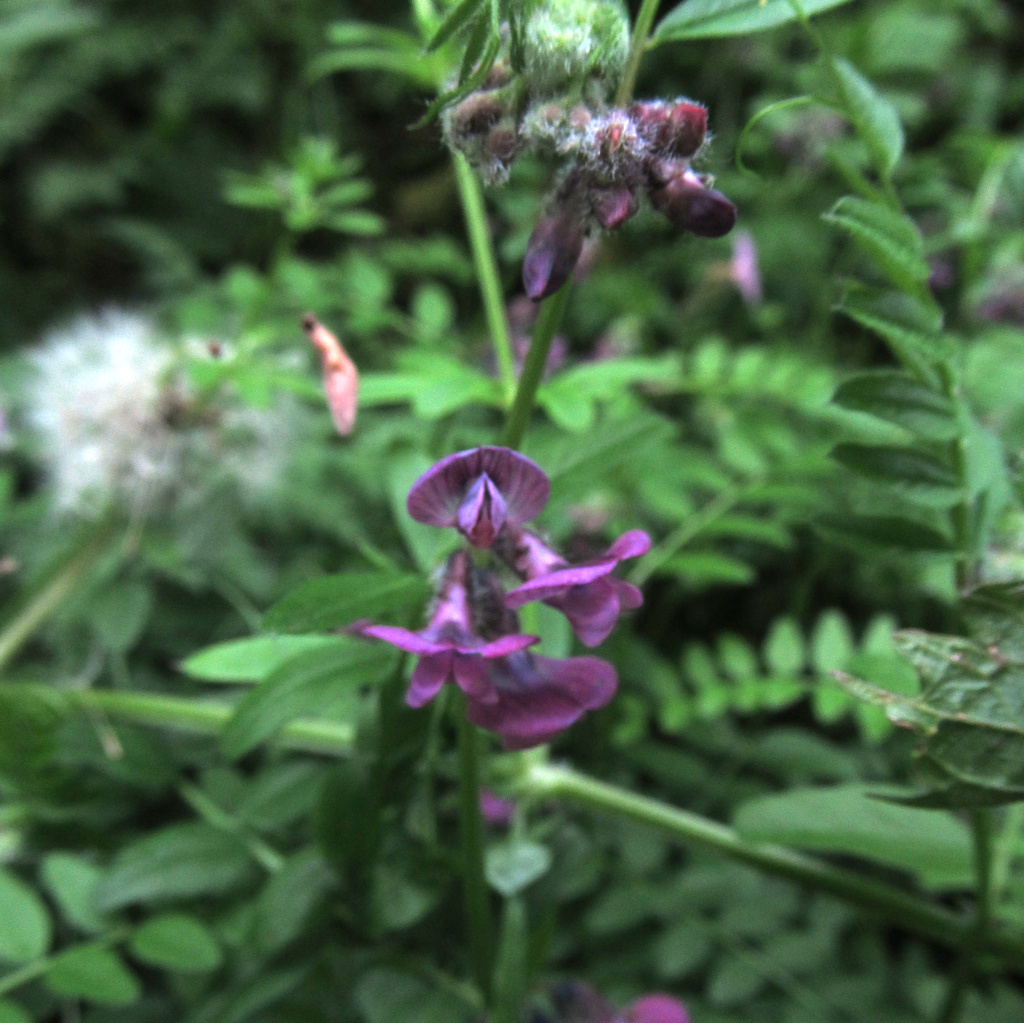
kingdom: Plantae
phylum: Tracheophyta
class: Magnoliopsida
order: Fabales
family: Fabaceae
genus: Vicia
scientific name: Vicia sepium
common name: Bush vetch
